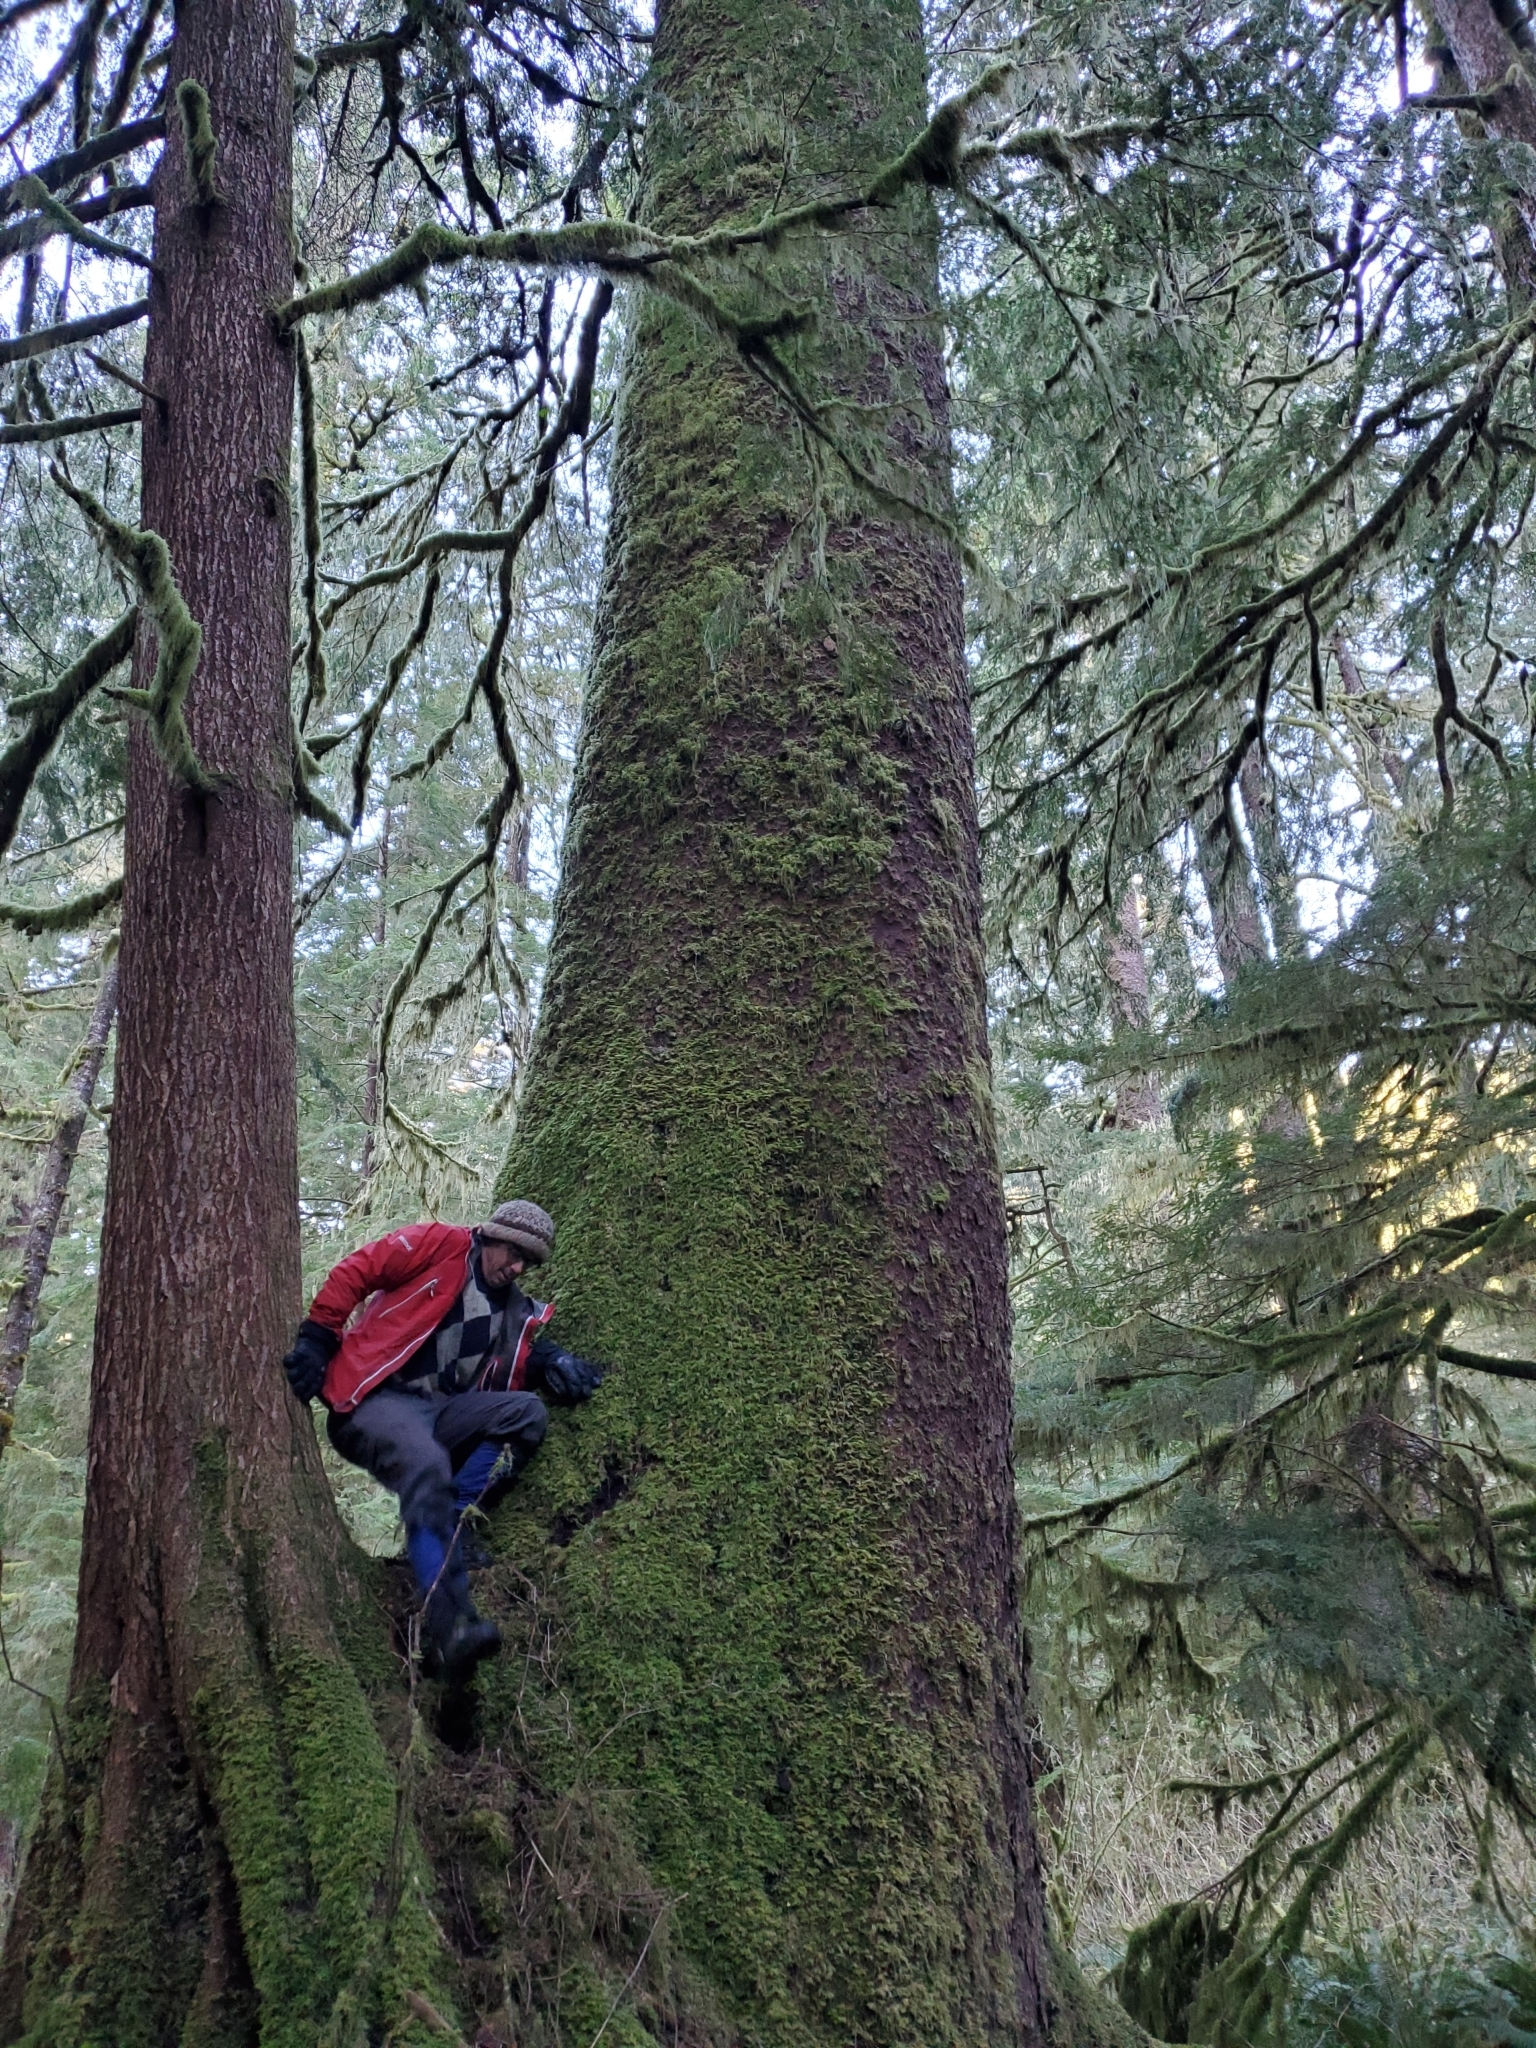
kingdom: Plantae
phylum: Tracheophyta
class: Pinopsida
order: Pinales
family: Pinaceae
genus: Picea
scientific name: Picea sitchensis
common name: Sitka spruce
